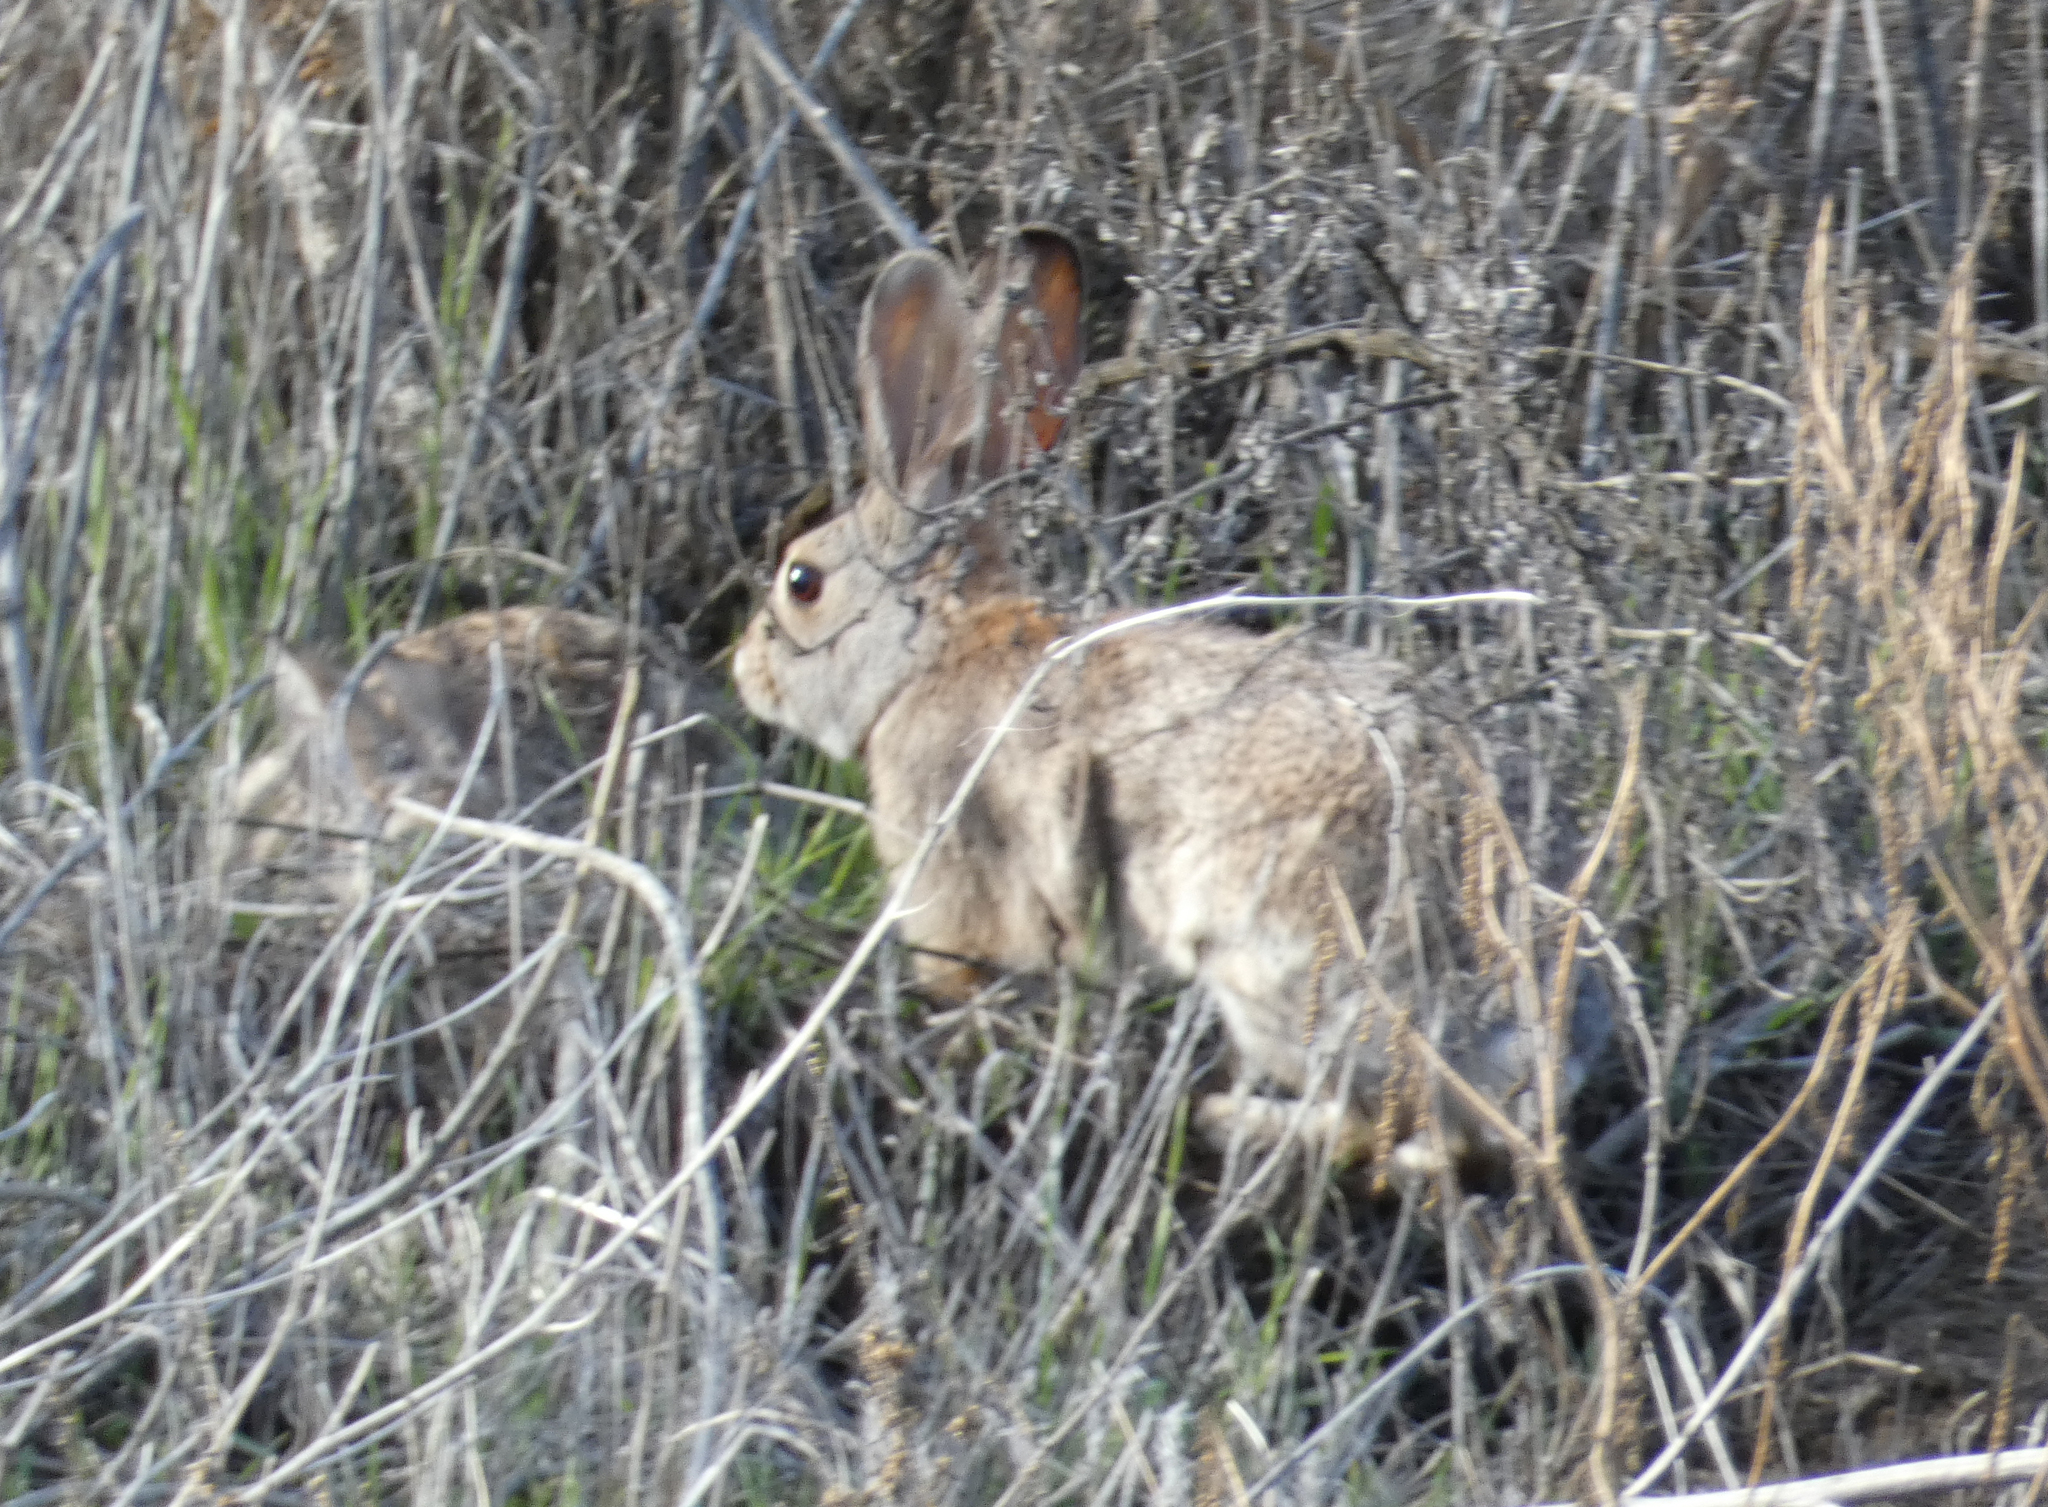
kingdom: Animalia
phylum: Chordata
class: Mammalia
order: Lagomorpha
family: Leporidae
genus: Sylvilagus
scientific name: Sylvilagus audubonii
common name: Desert cottontail
